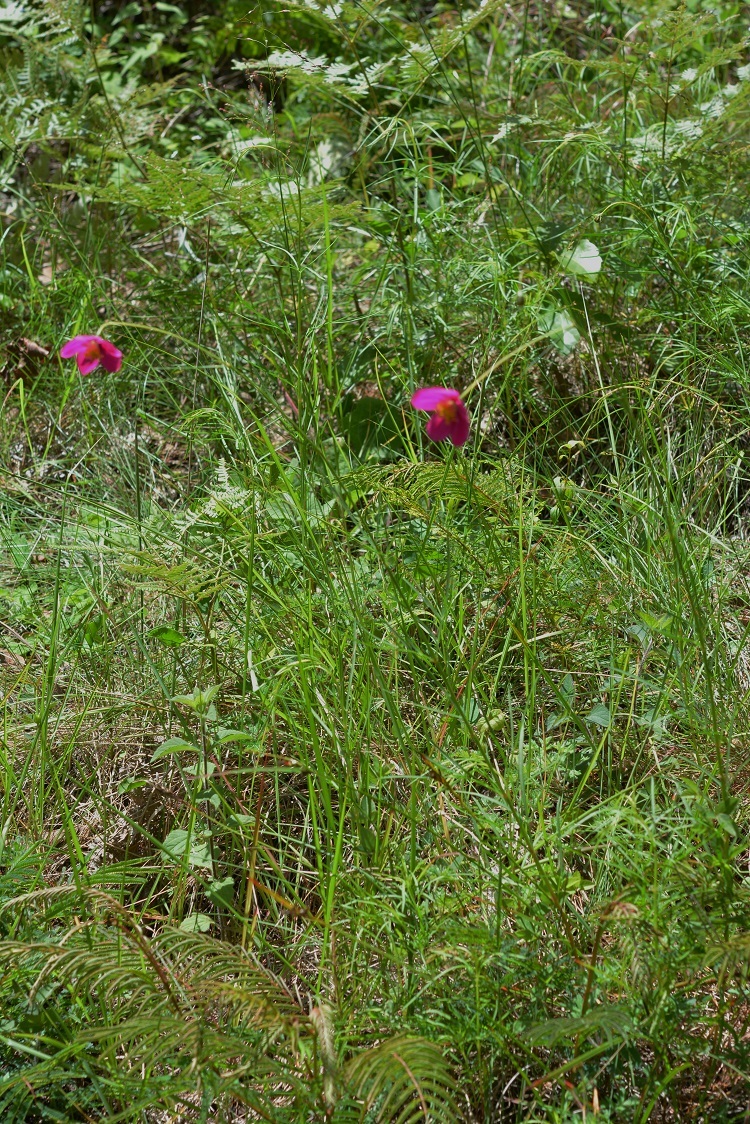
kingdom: Plantae
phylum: Tracheophyta
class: Magnoliopsida
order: Asterales
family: Asteraceae
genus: Cosmos
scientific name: Cosmos crithmifolius
